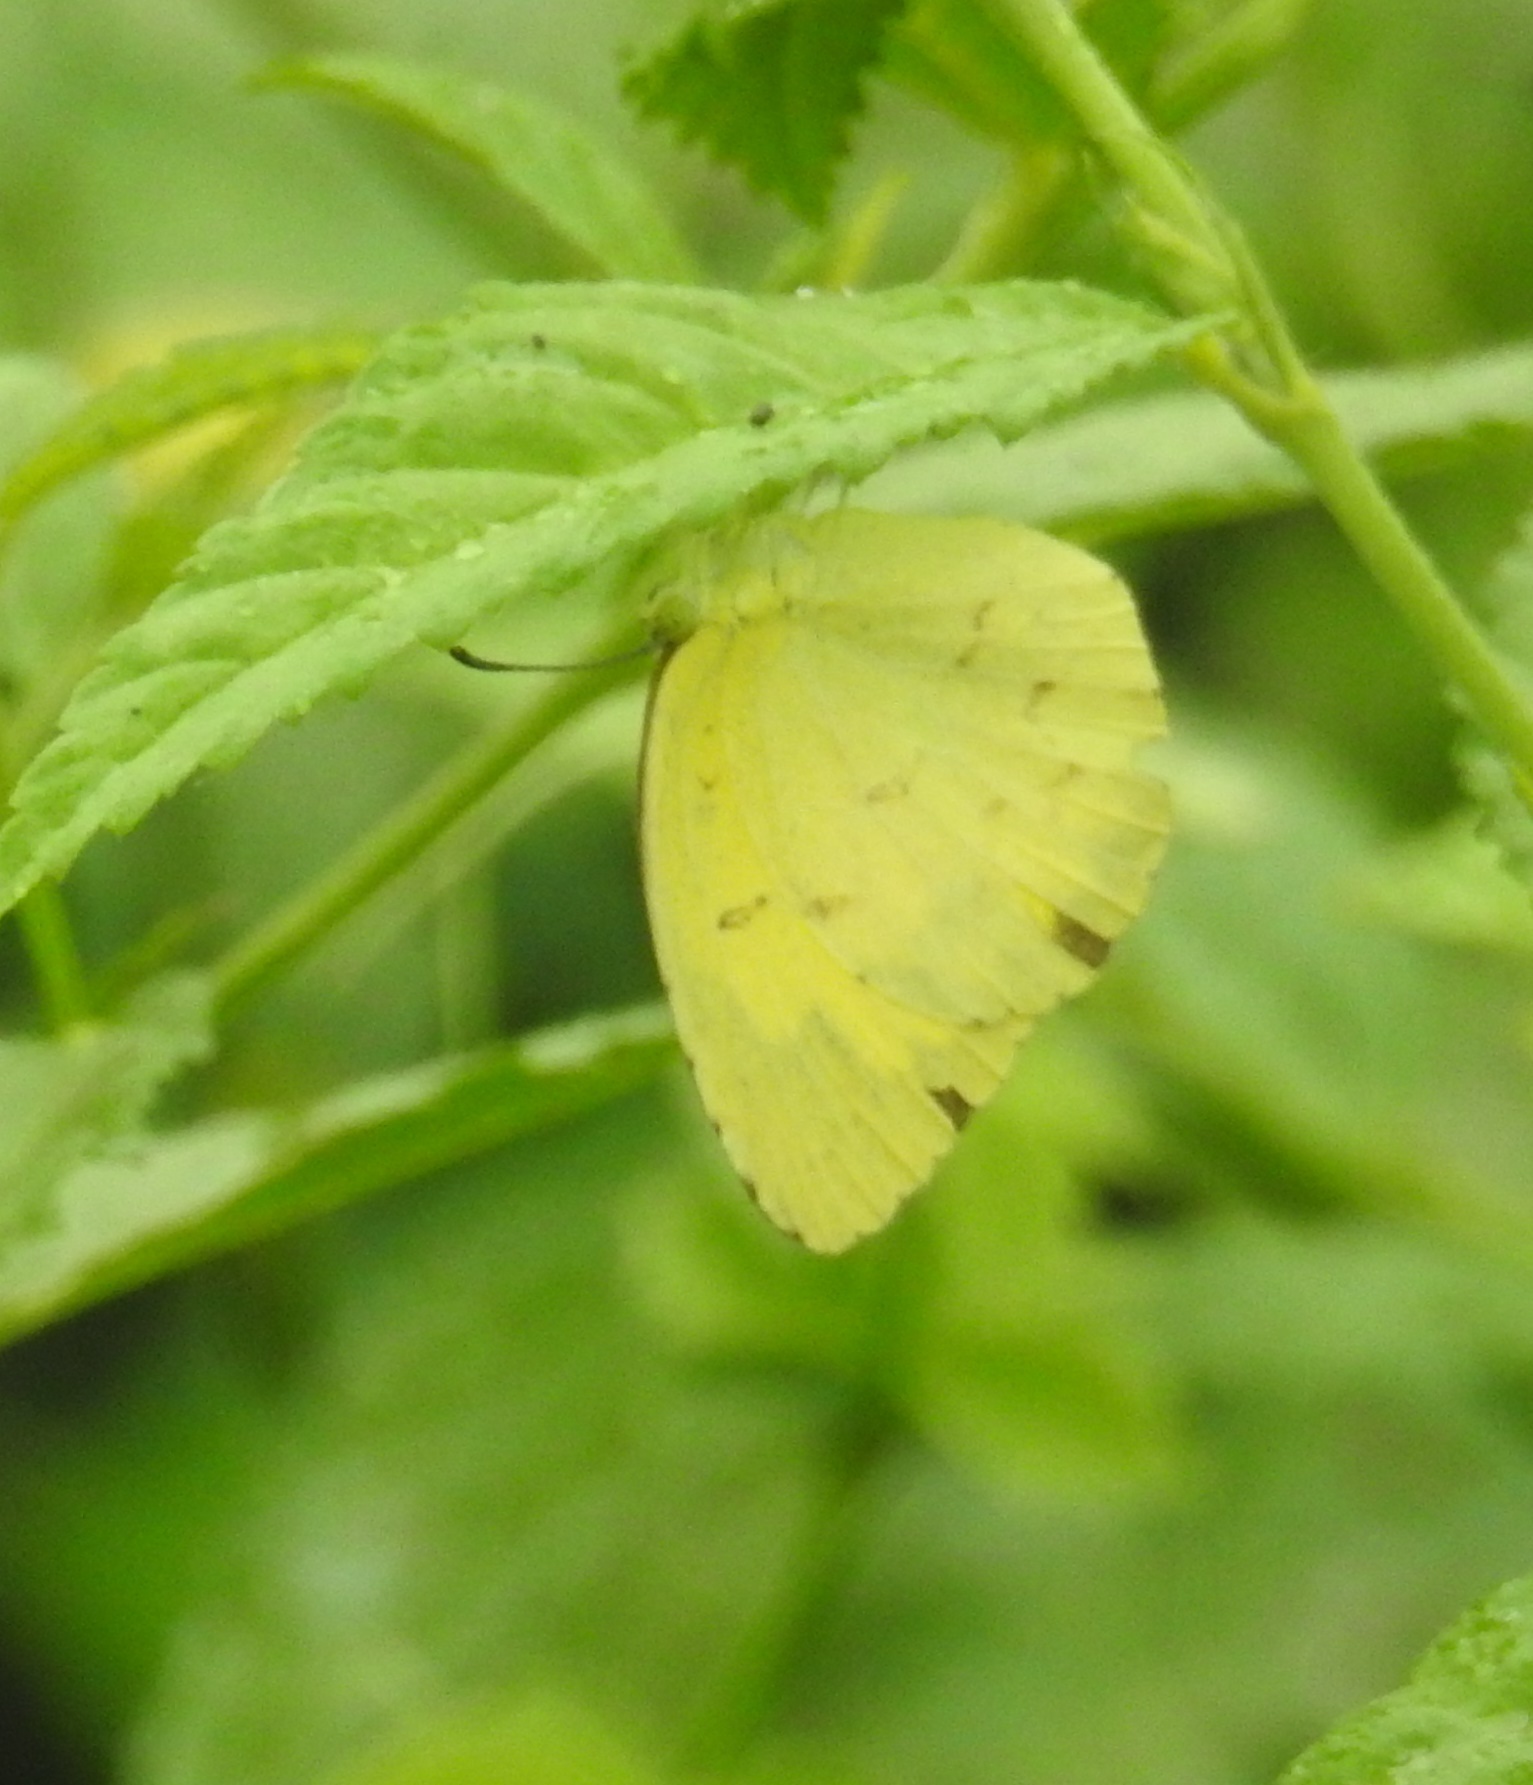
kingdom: Animalia
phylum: Arthropoda
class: Insecta
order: Lepidoptera
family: Pieridae
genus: Eurema
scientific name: Eurema hecabe
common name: Pale grass yellow
